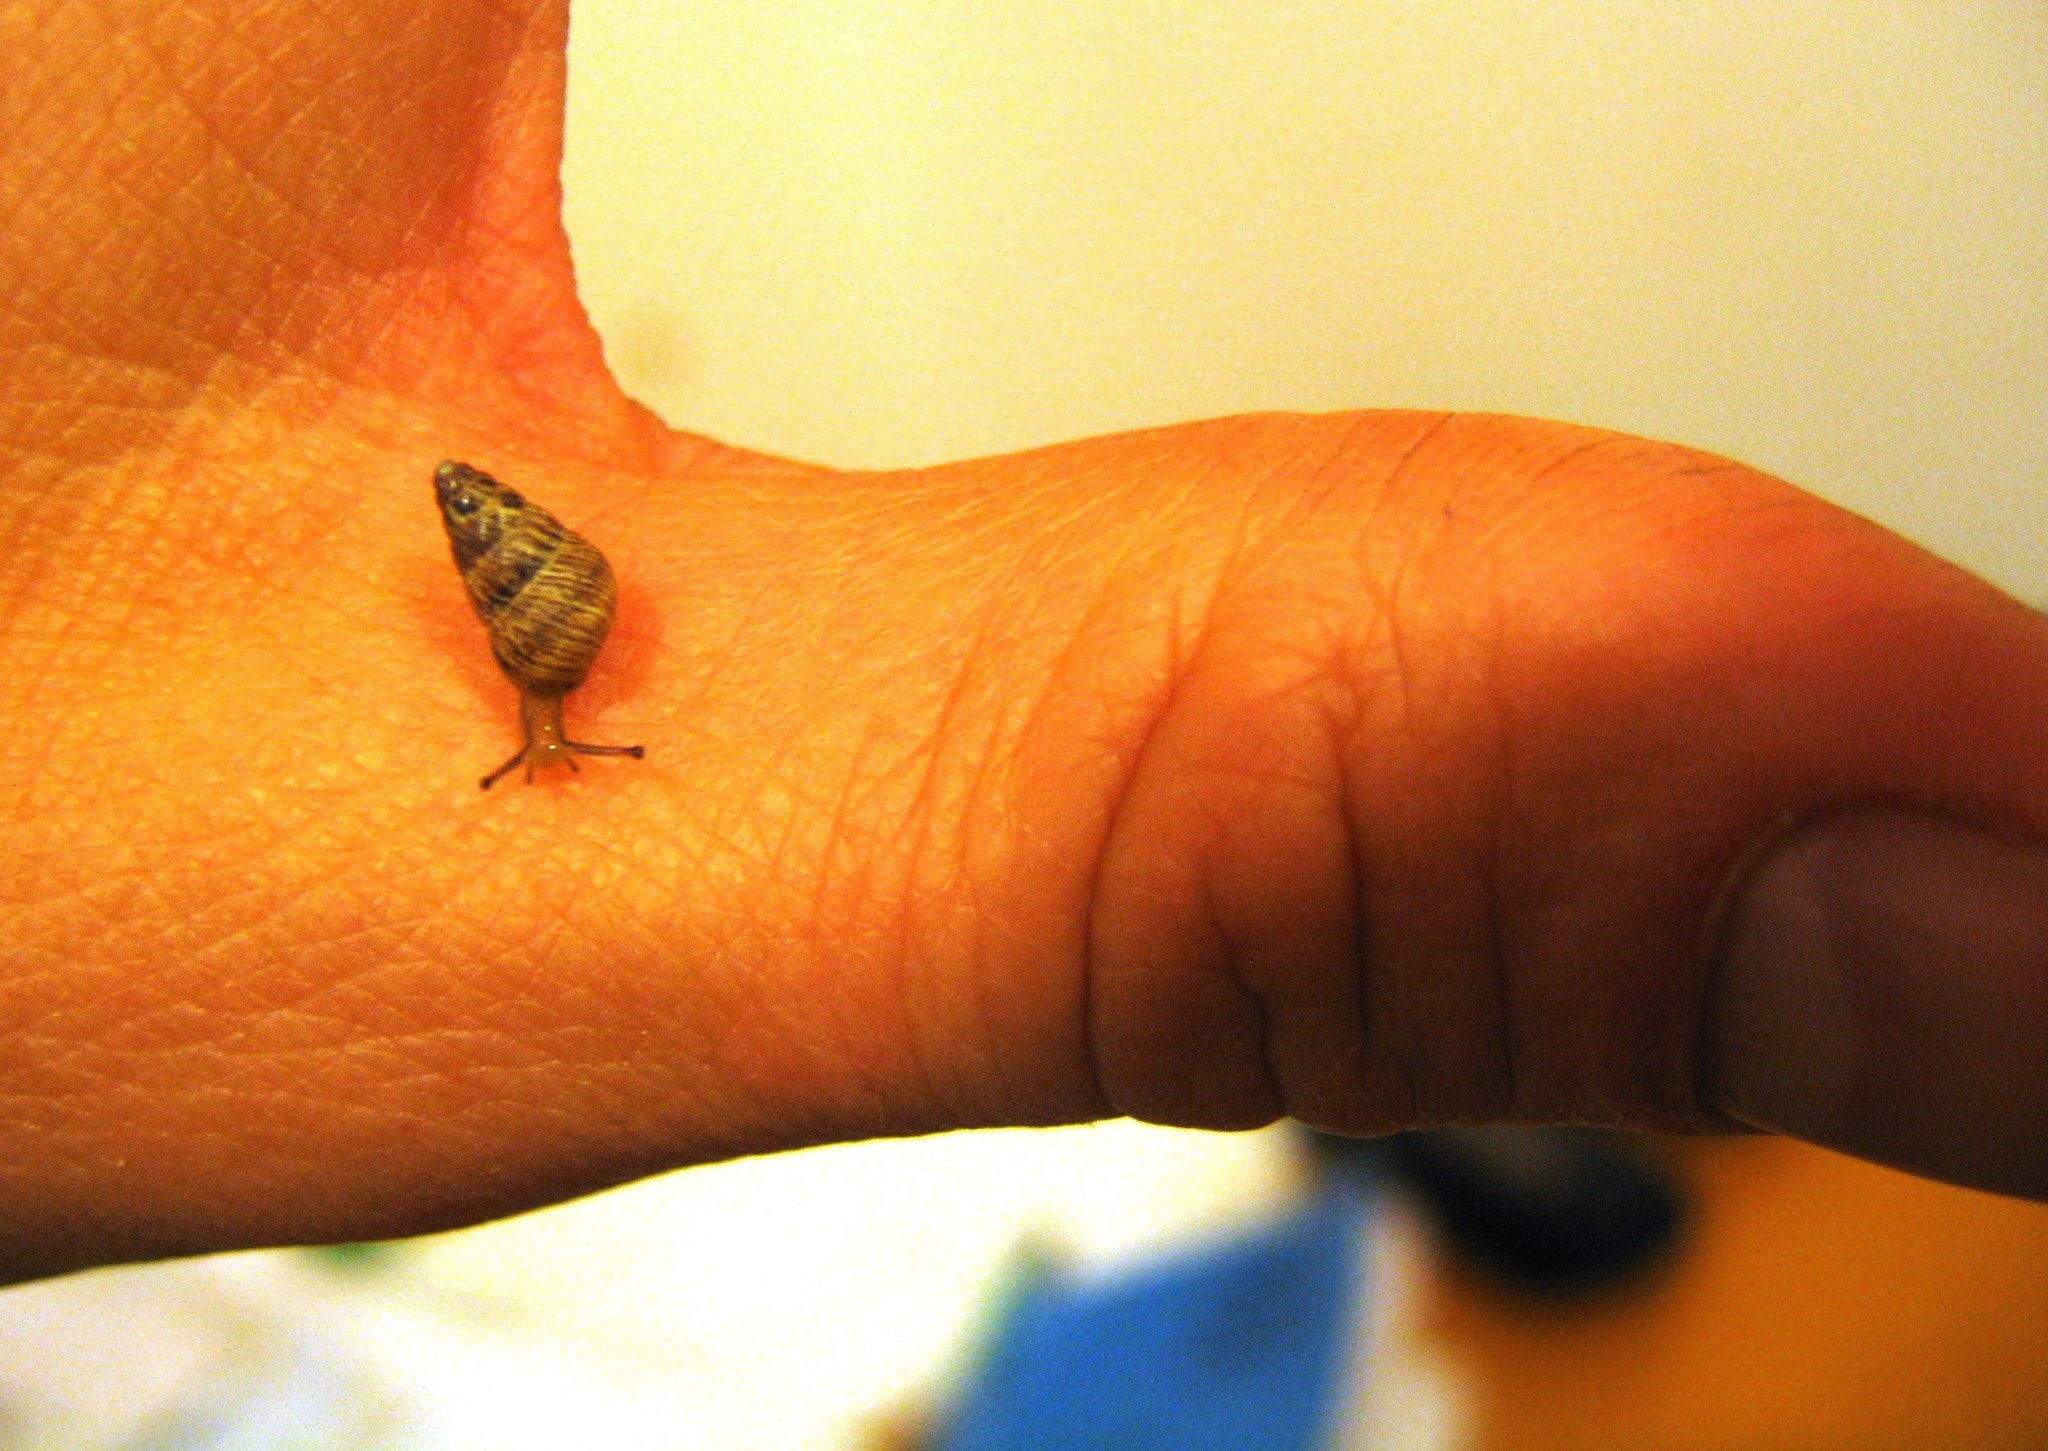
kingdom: Animalia
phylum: Mollusca
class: Gastropoda
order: Stylommatophora
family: Geomitridae
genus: Cochlicella
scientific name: Cochlicella barbara
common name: Potbellied helicellid
